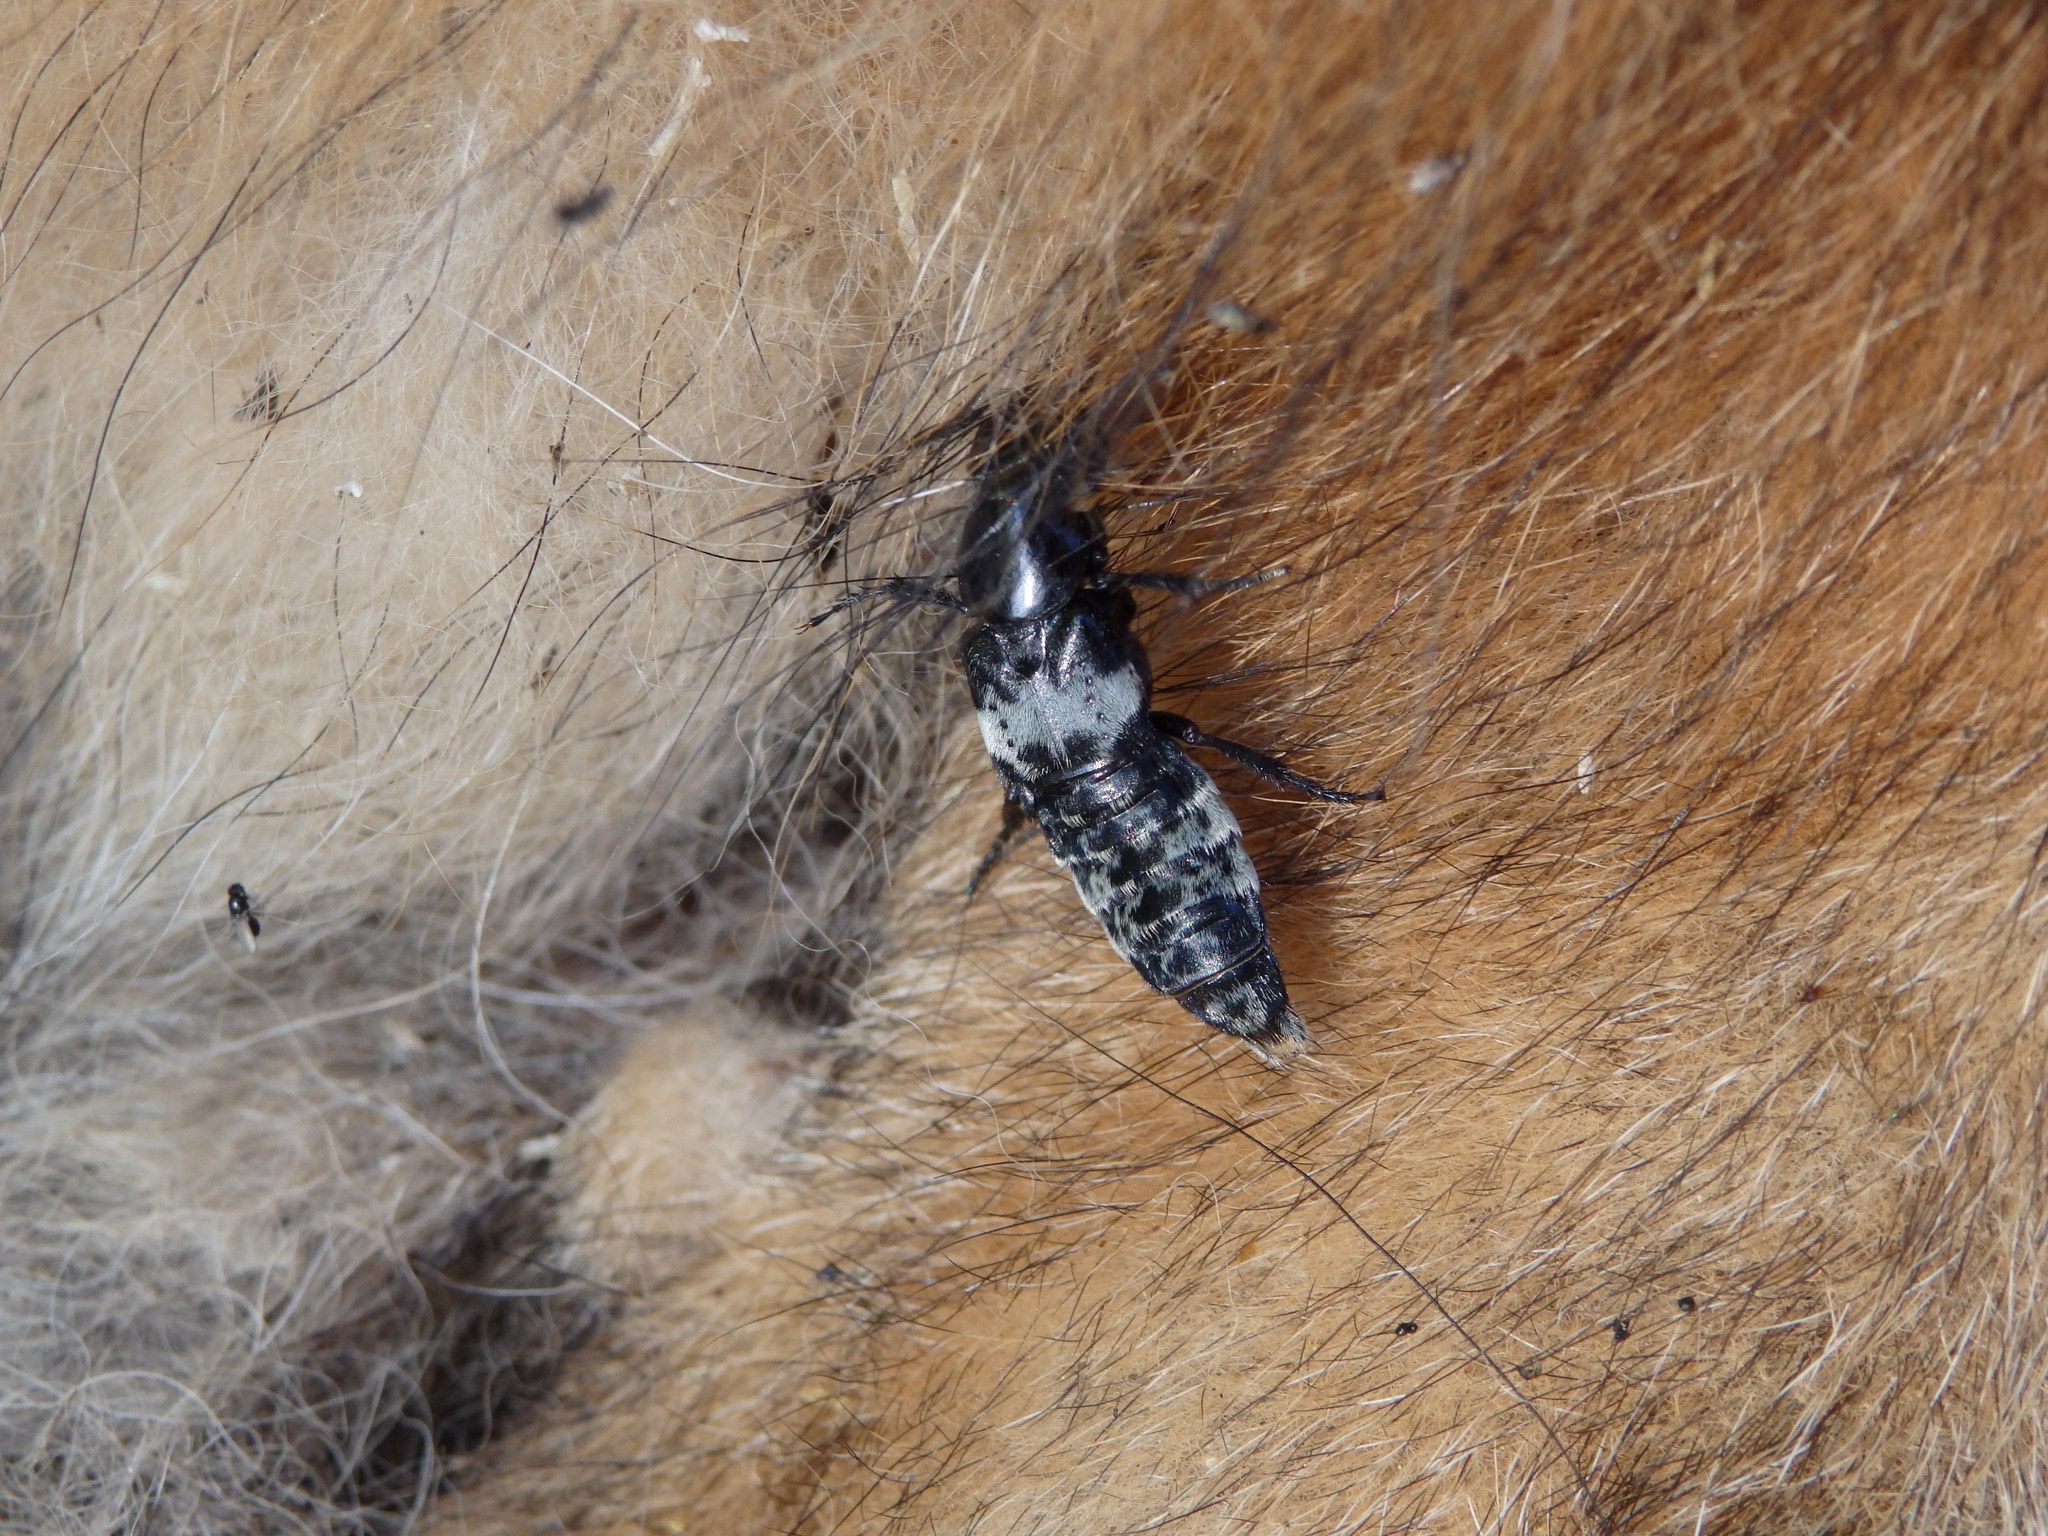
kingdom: Animalia
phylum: Arthropoda
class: Insecta
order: Coleoptera
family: Staphylinidae
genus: Creophilus
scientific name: Creophilus maxillosus
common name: Hairy rove beetle
